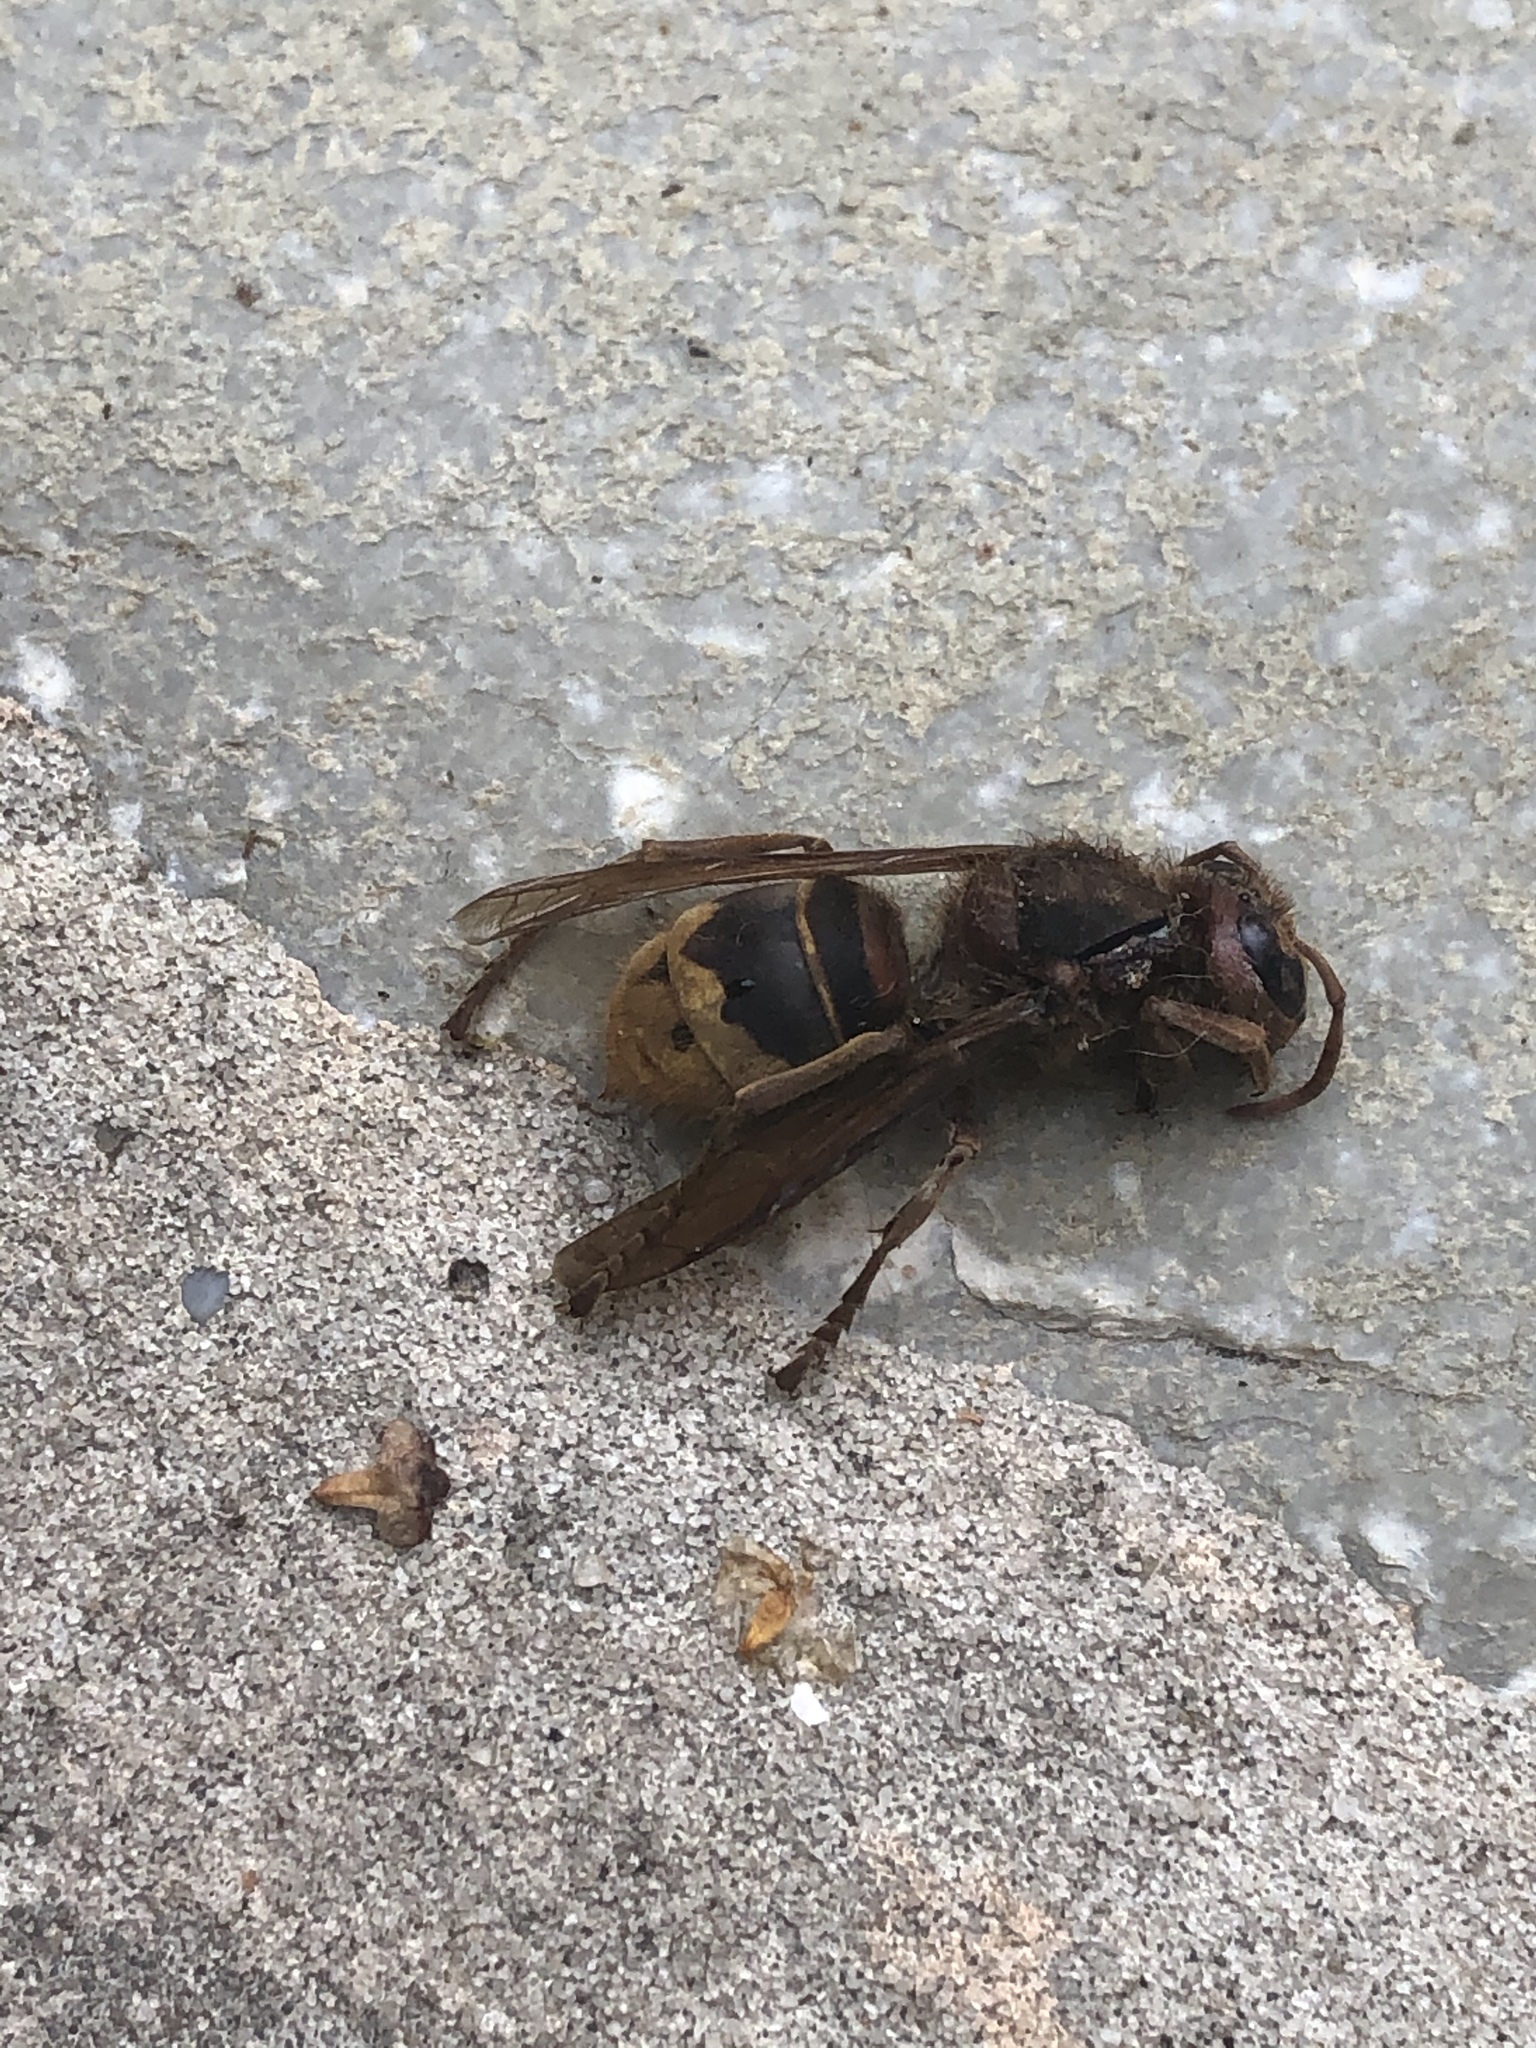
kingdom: Animalia
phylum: Arthropoda
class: Insecta
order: Hymenoptera
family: Vespidae
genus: Vespa
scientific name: Vespa crabro
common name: Hornet
